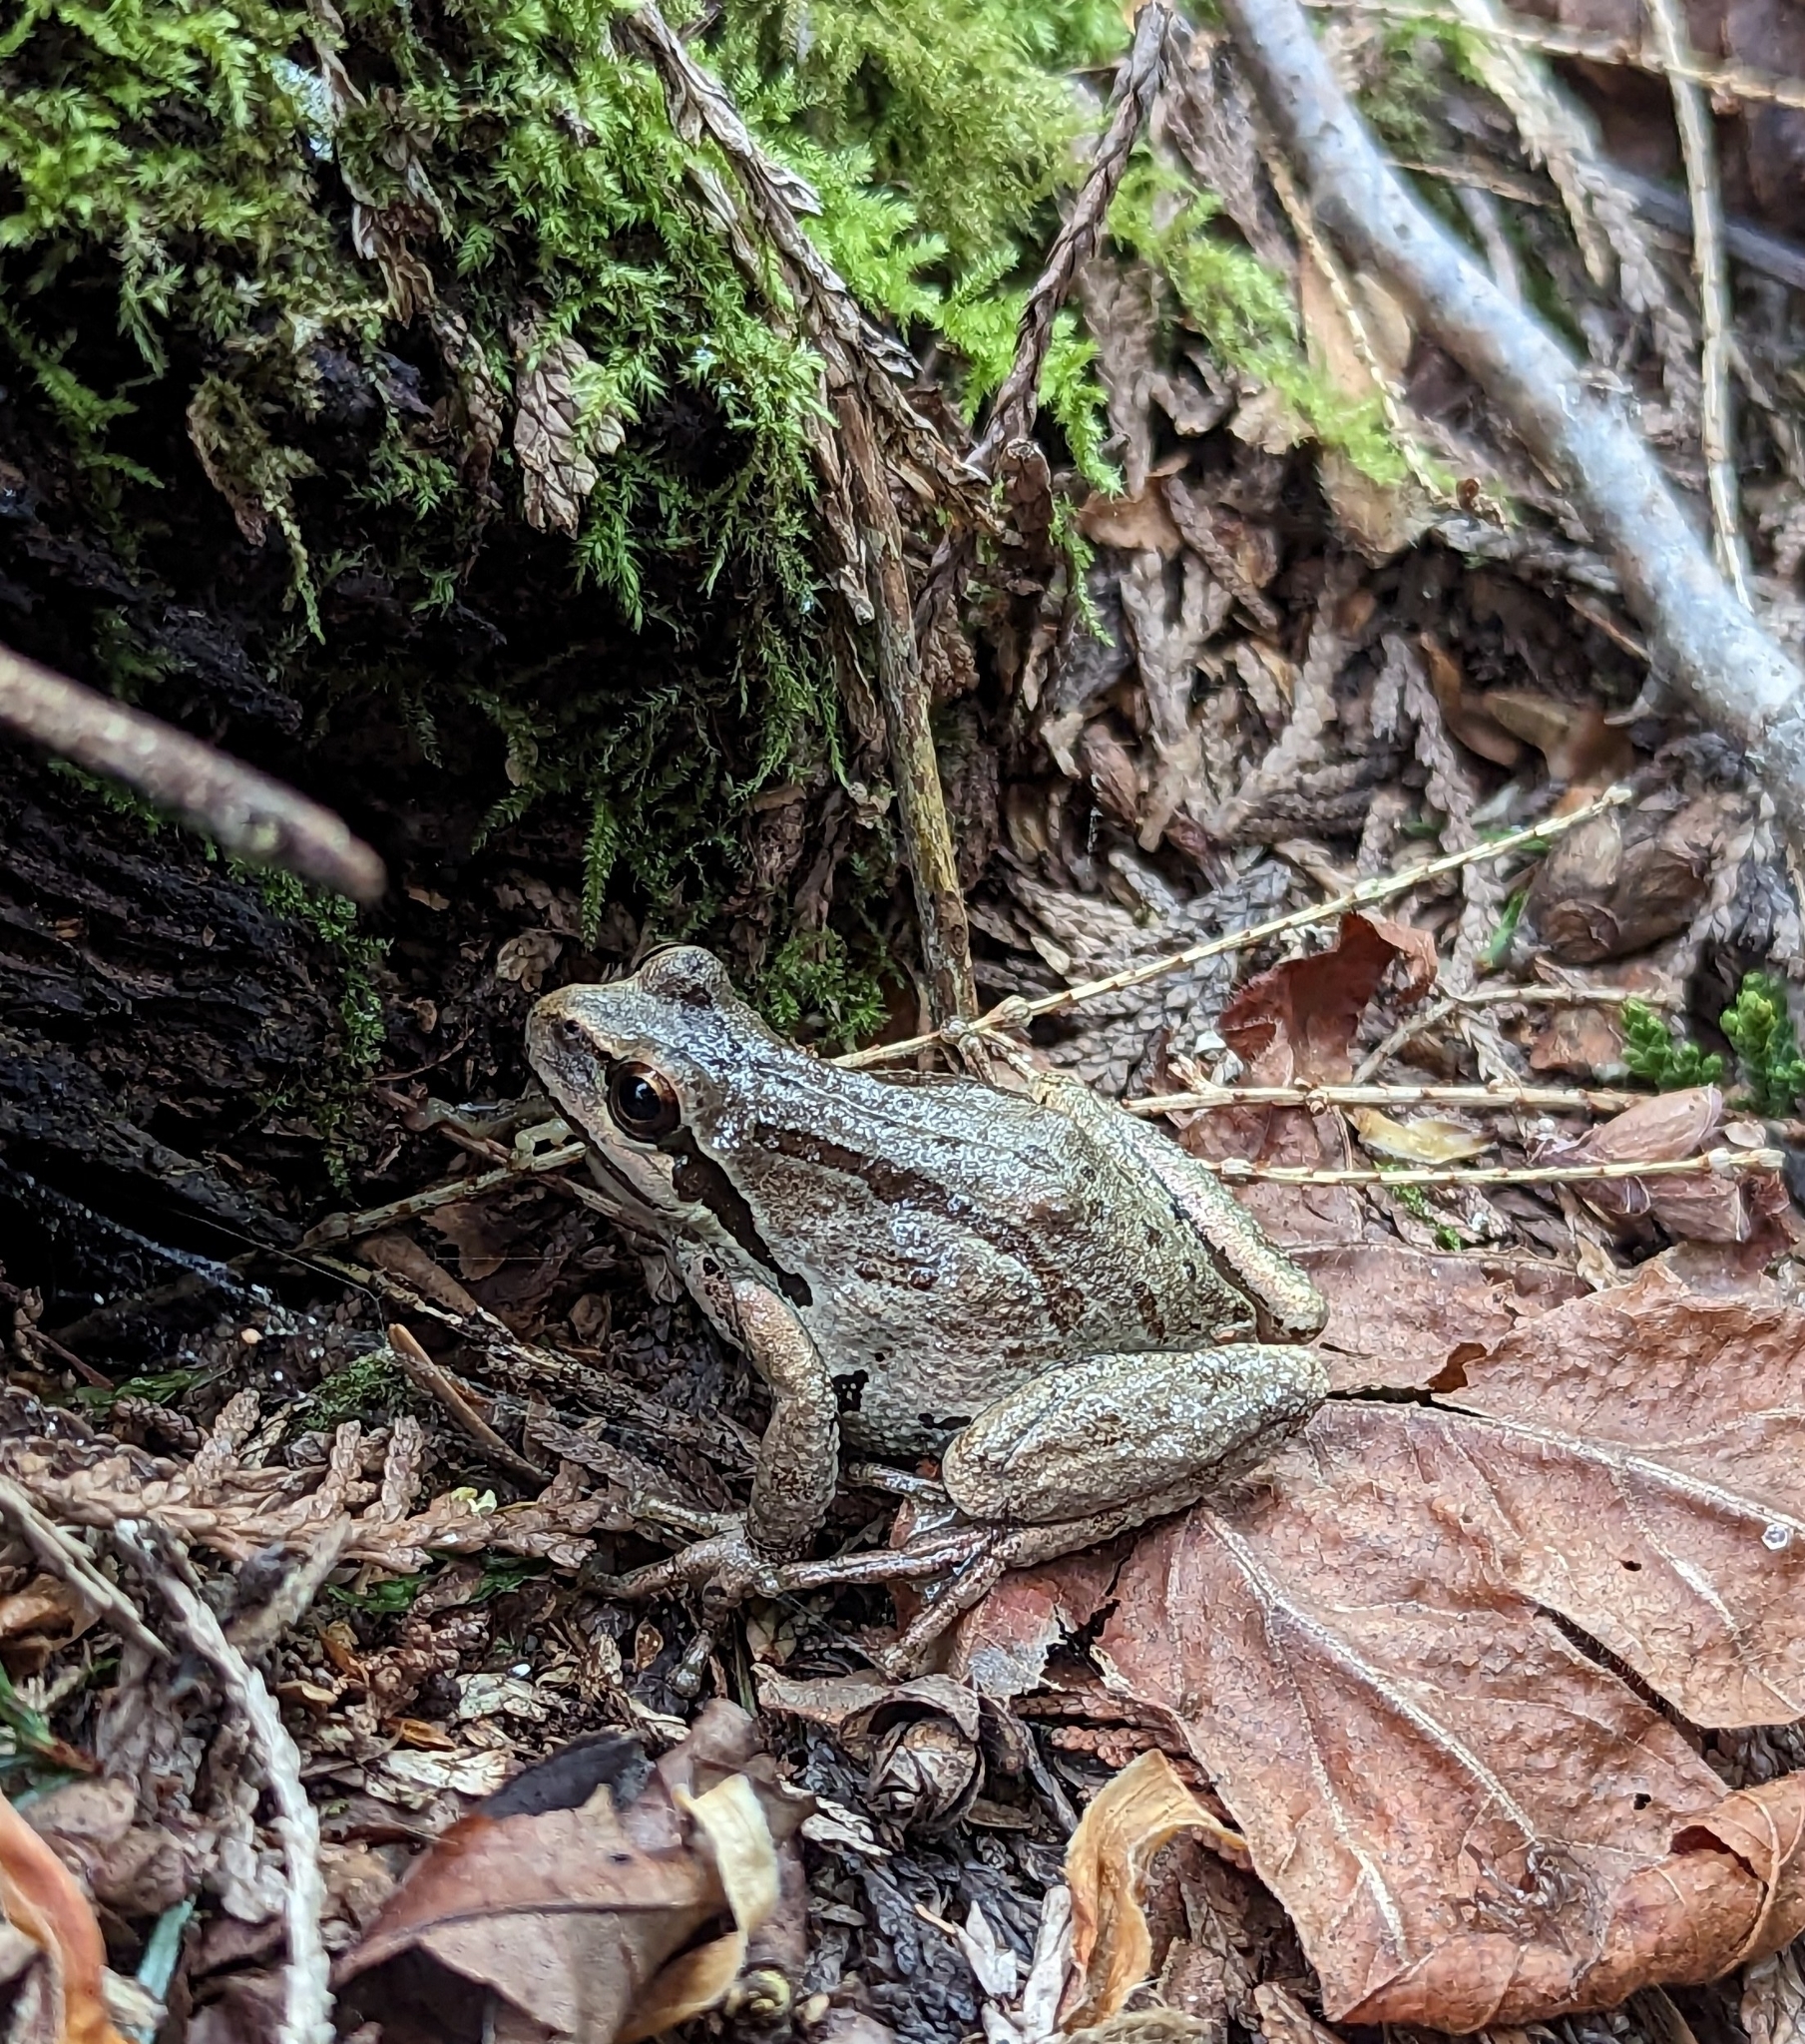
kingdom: Animalia
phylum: Chordata
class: Amphibia
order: Anura
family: Hylidae
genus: Pseudacris
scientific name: Pseudacris regilla
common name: Pacific chorus frog
